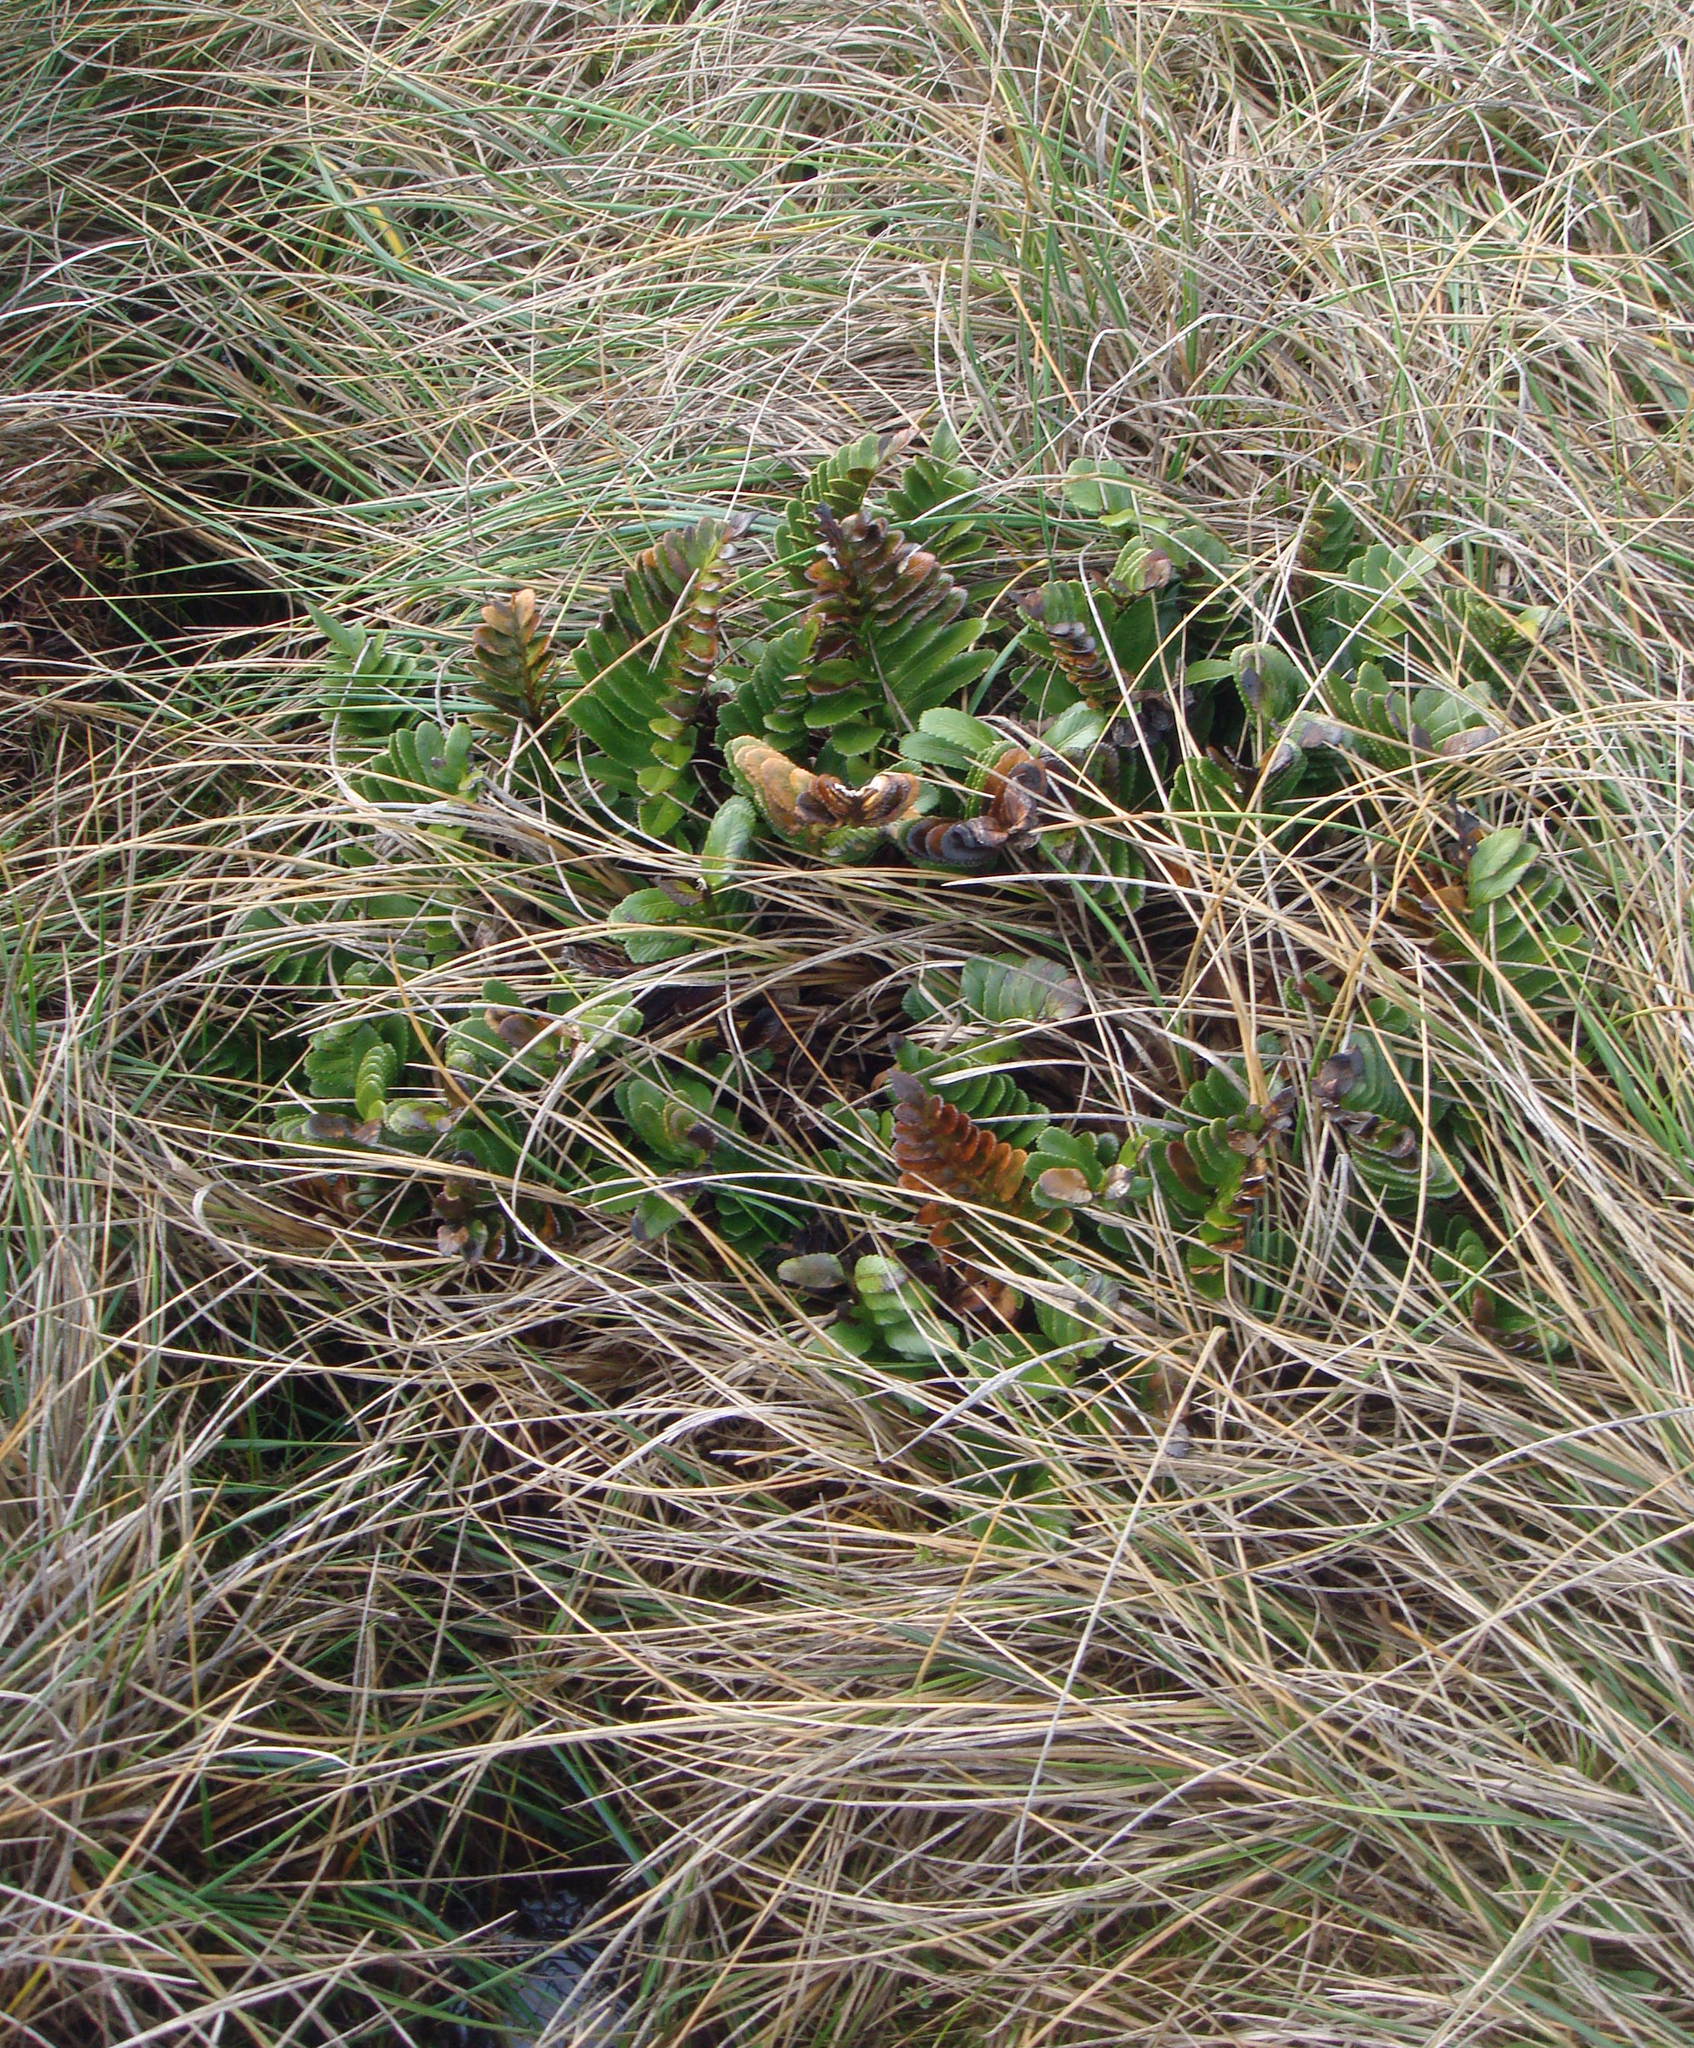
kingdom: Plantae
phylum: Tracheophyta
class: Polypodiopsida
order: Polypodiales
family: Aspleniaceae
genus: Asplenium
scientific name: Asplenium obtusatum
